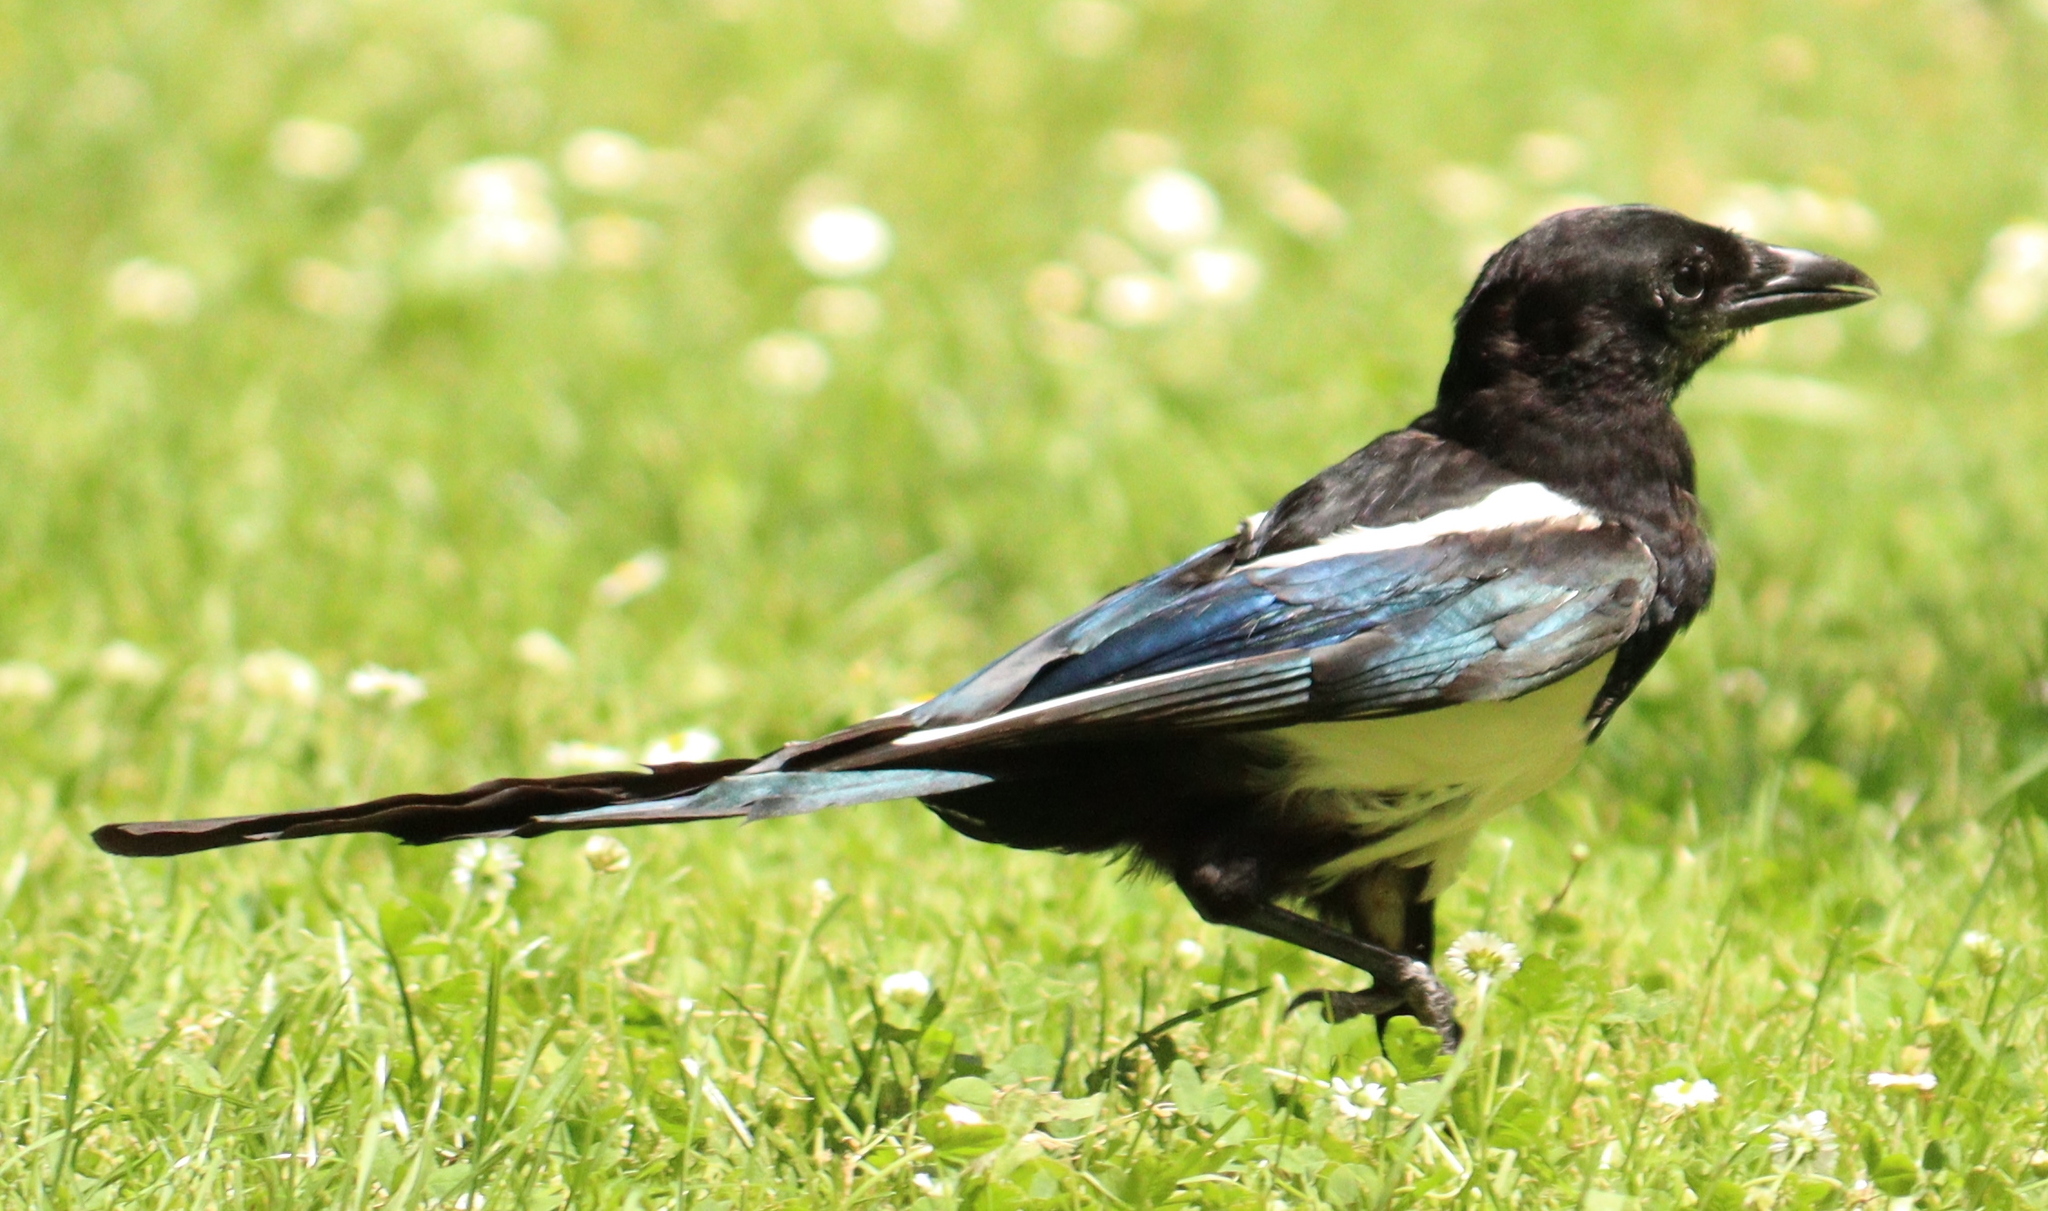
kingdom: Animalia
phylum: Chordata
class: Aves
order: Passeriformes
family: Corvidae
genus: Pica
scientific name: Pica pica
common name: Eurasian magpie
